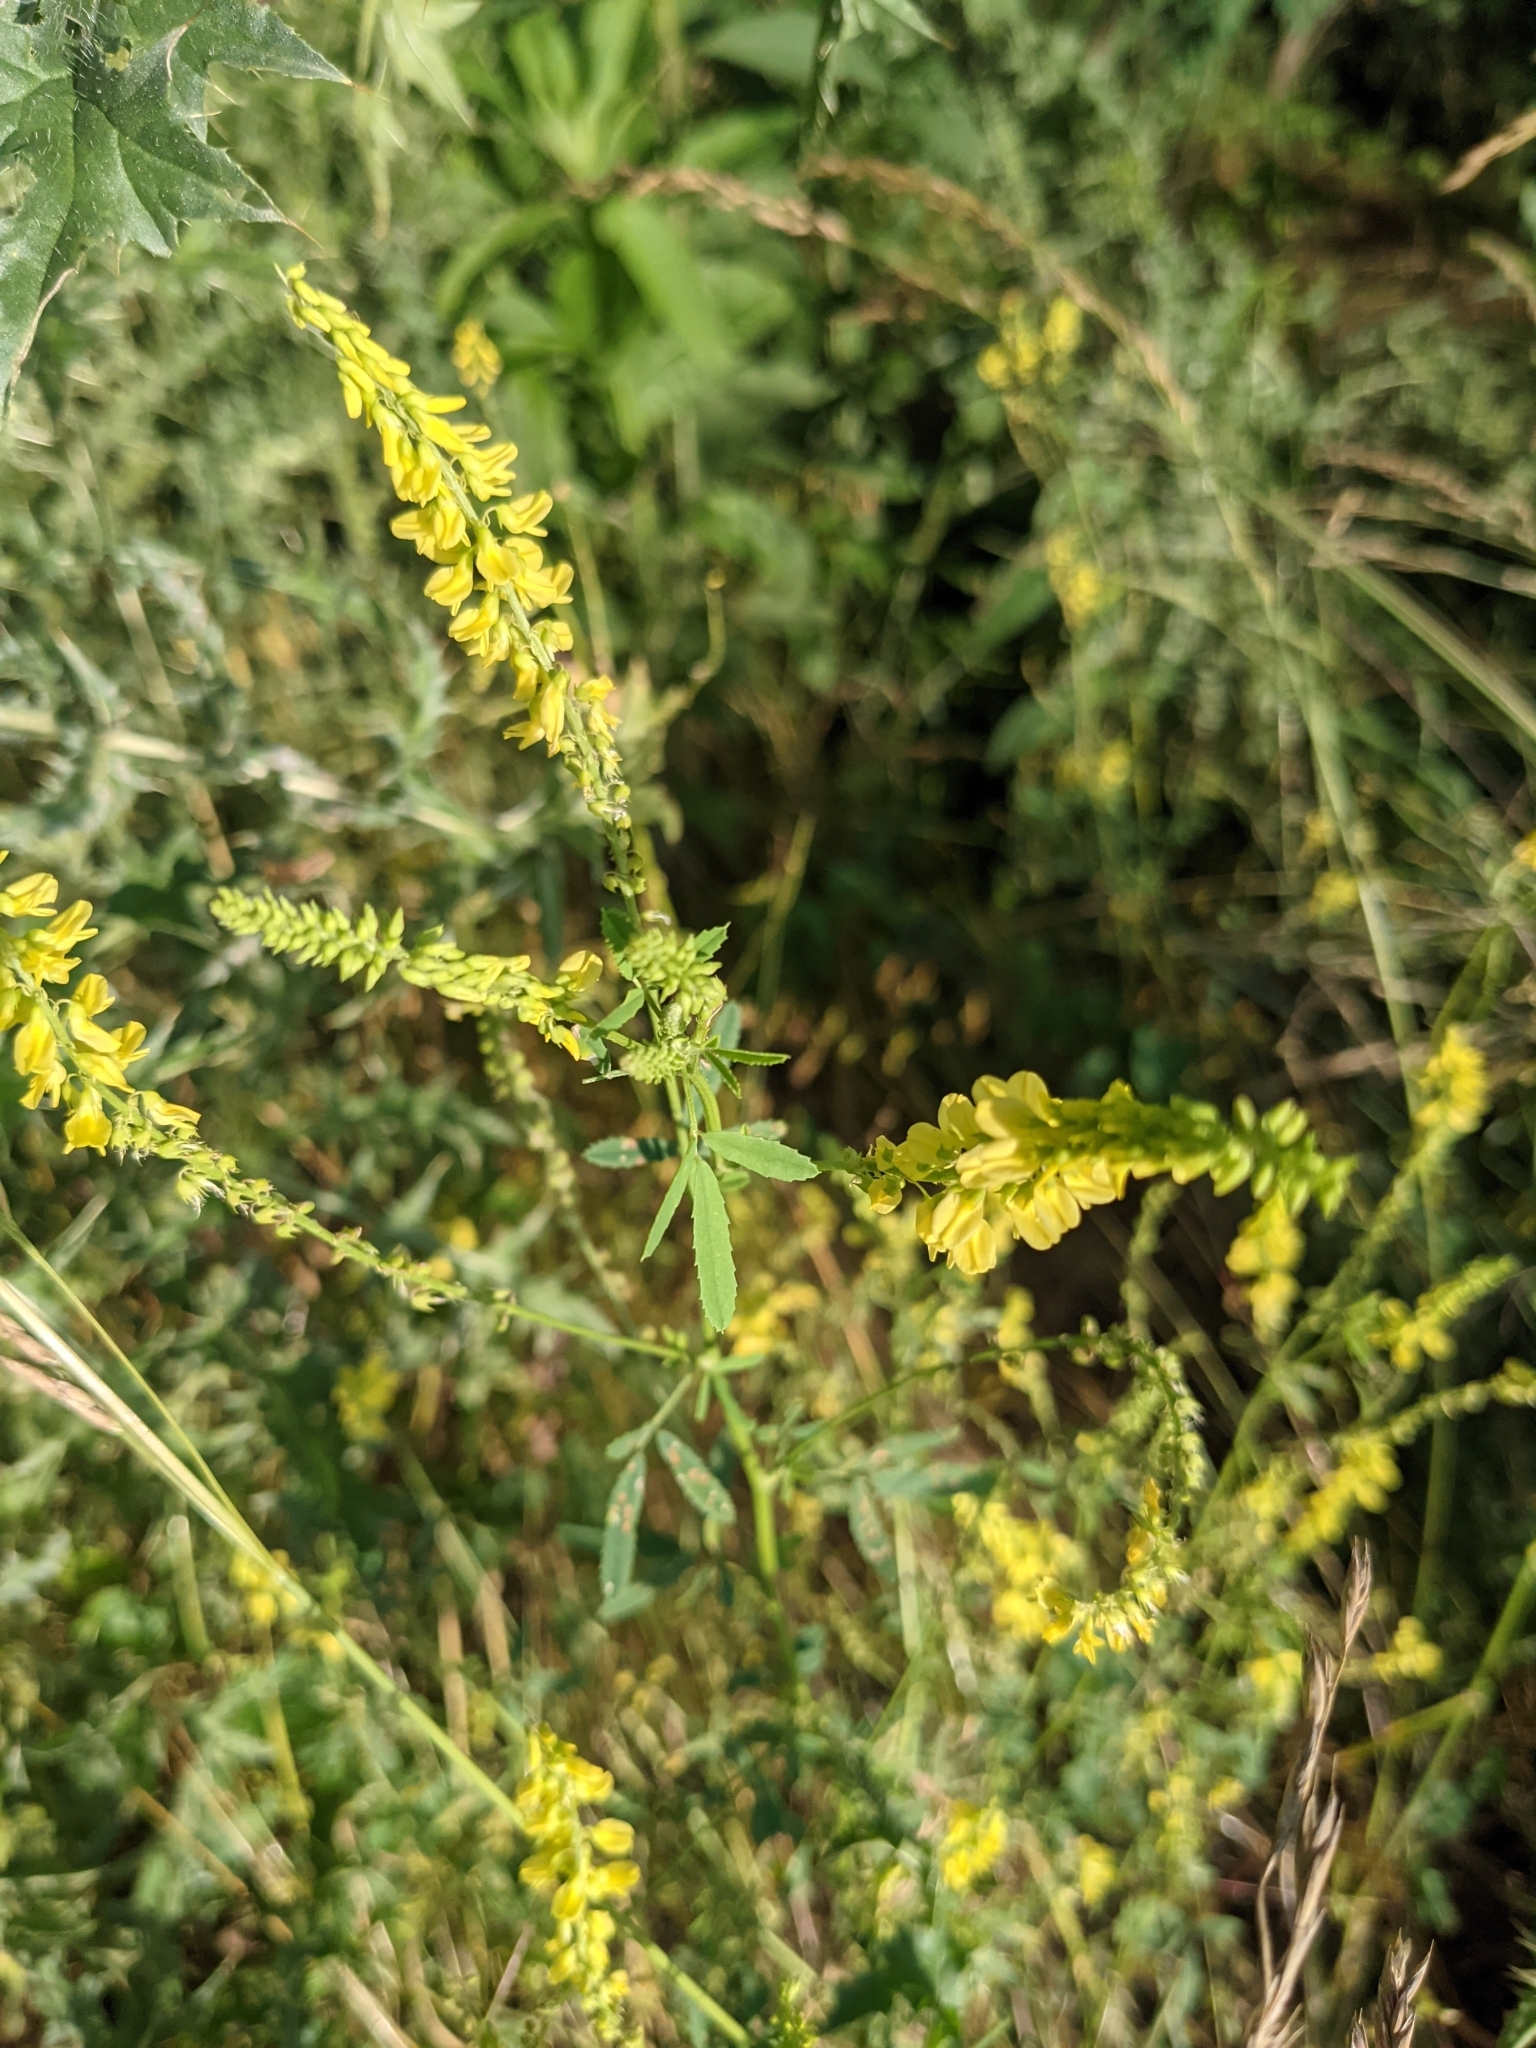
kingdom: Plantae
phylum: Tracheophyta
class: Magnoliopsida
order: Fabales
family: Fabaceae
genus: Melilotus
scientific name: Melilotus officinalis
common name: Sweetclover
